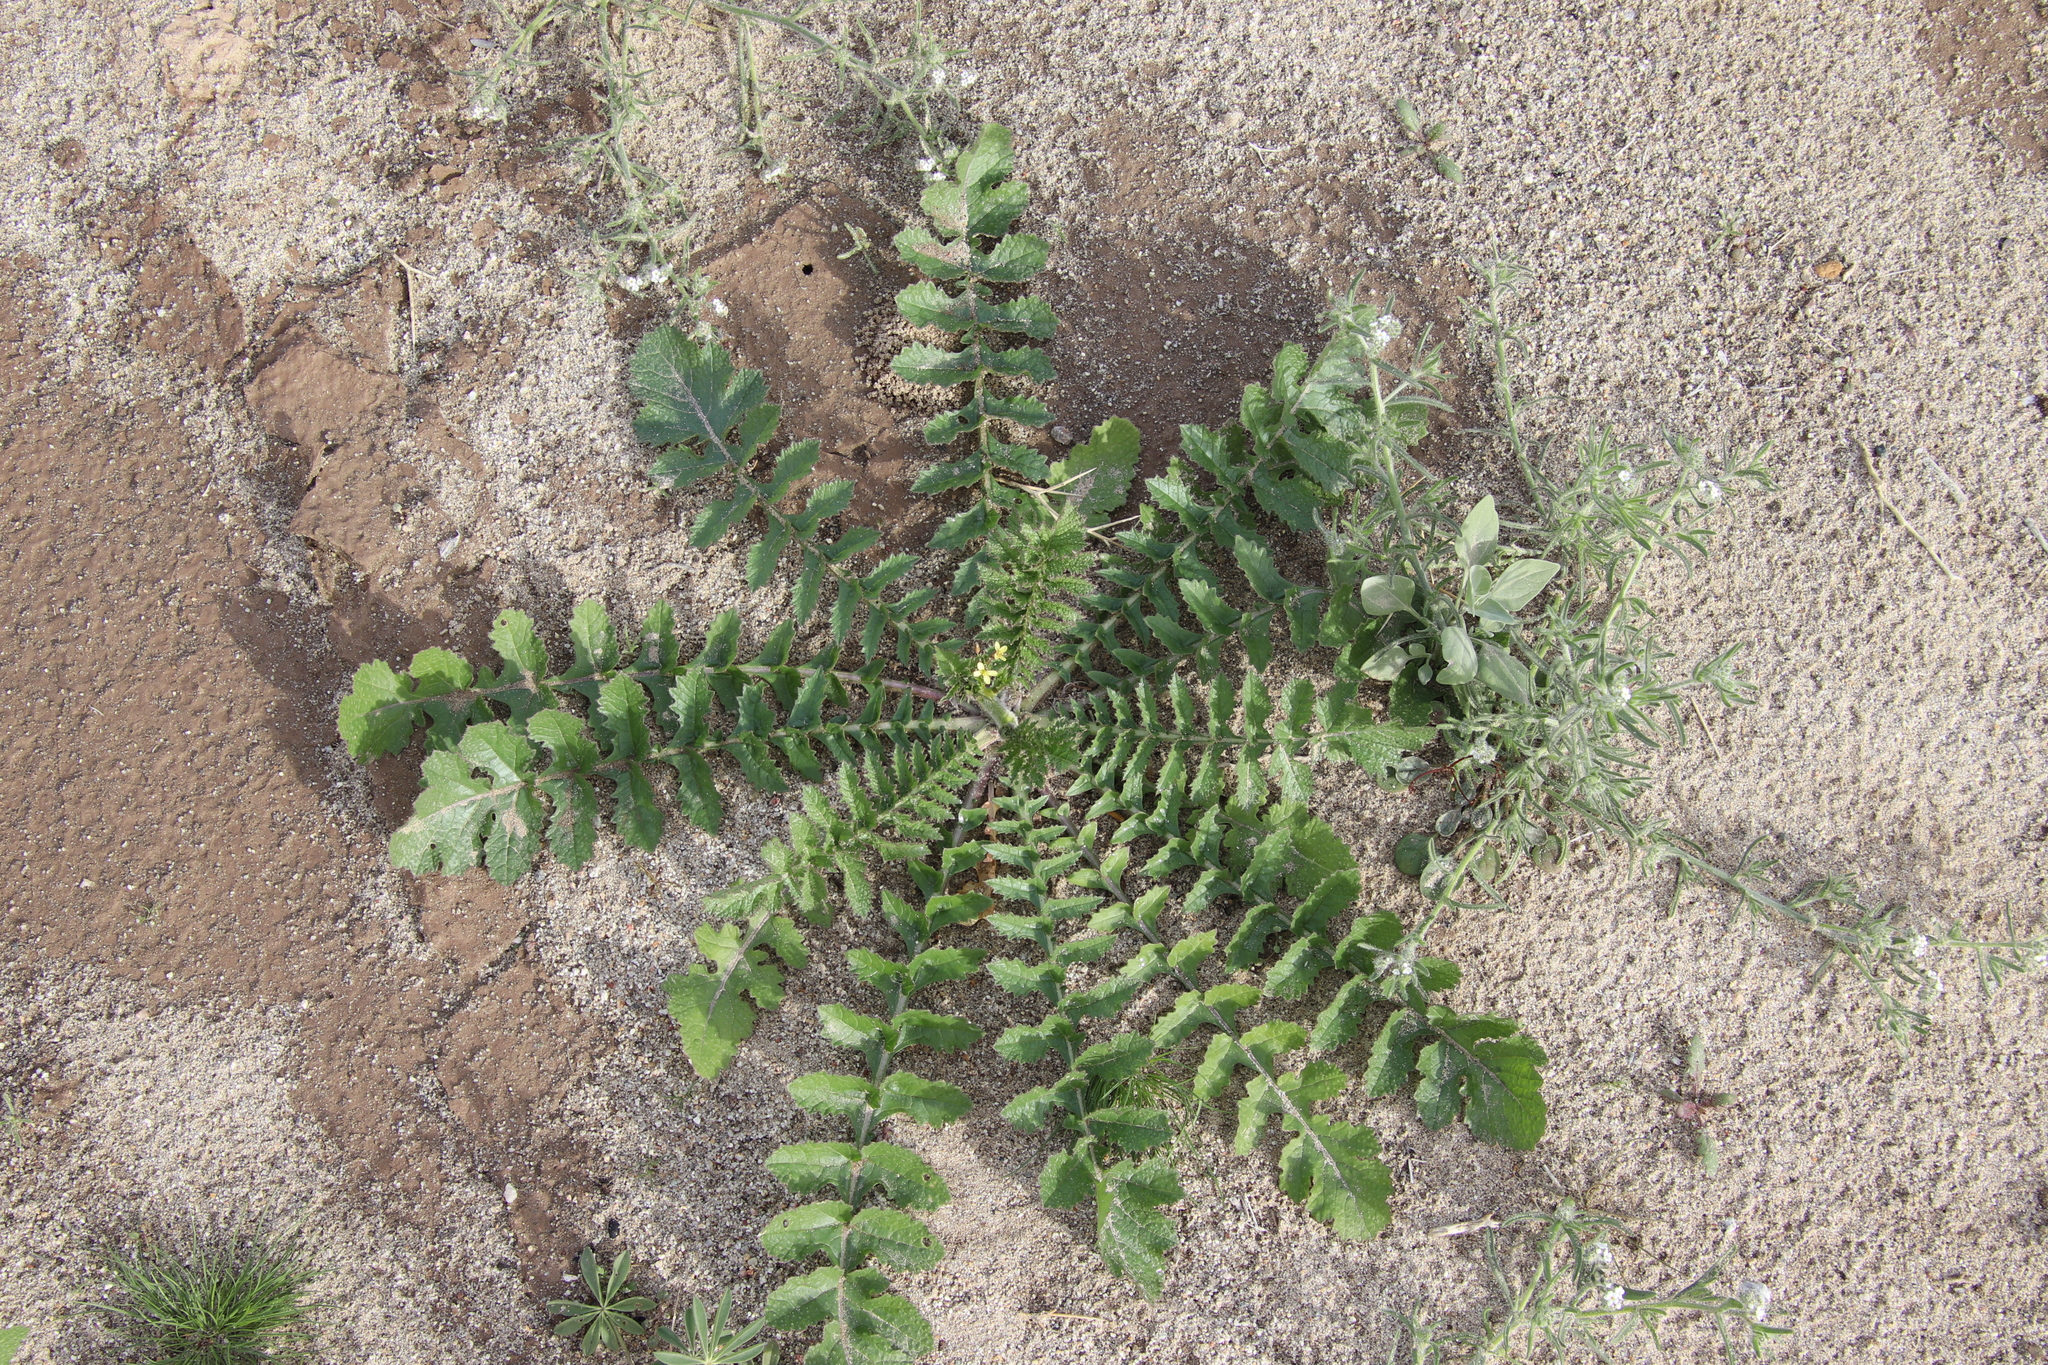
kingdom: Plantae
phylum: Tracheophyta
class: Magnoliopsida
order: Brassicales
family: Brassicaceae
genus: Brassica
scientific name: Brassica tournefortii
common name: Pale cabbage
